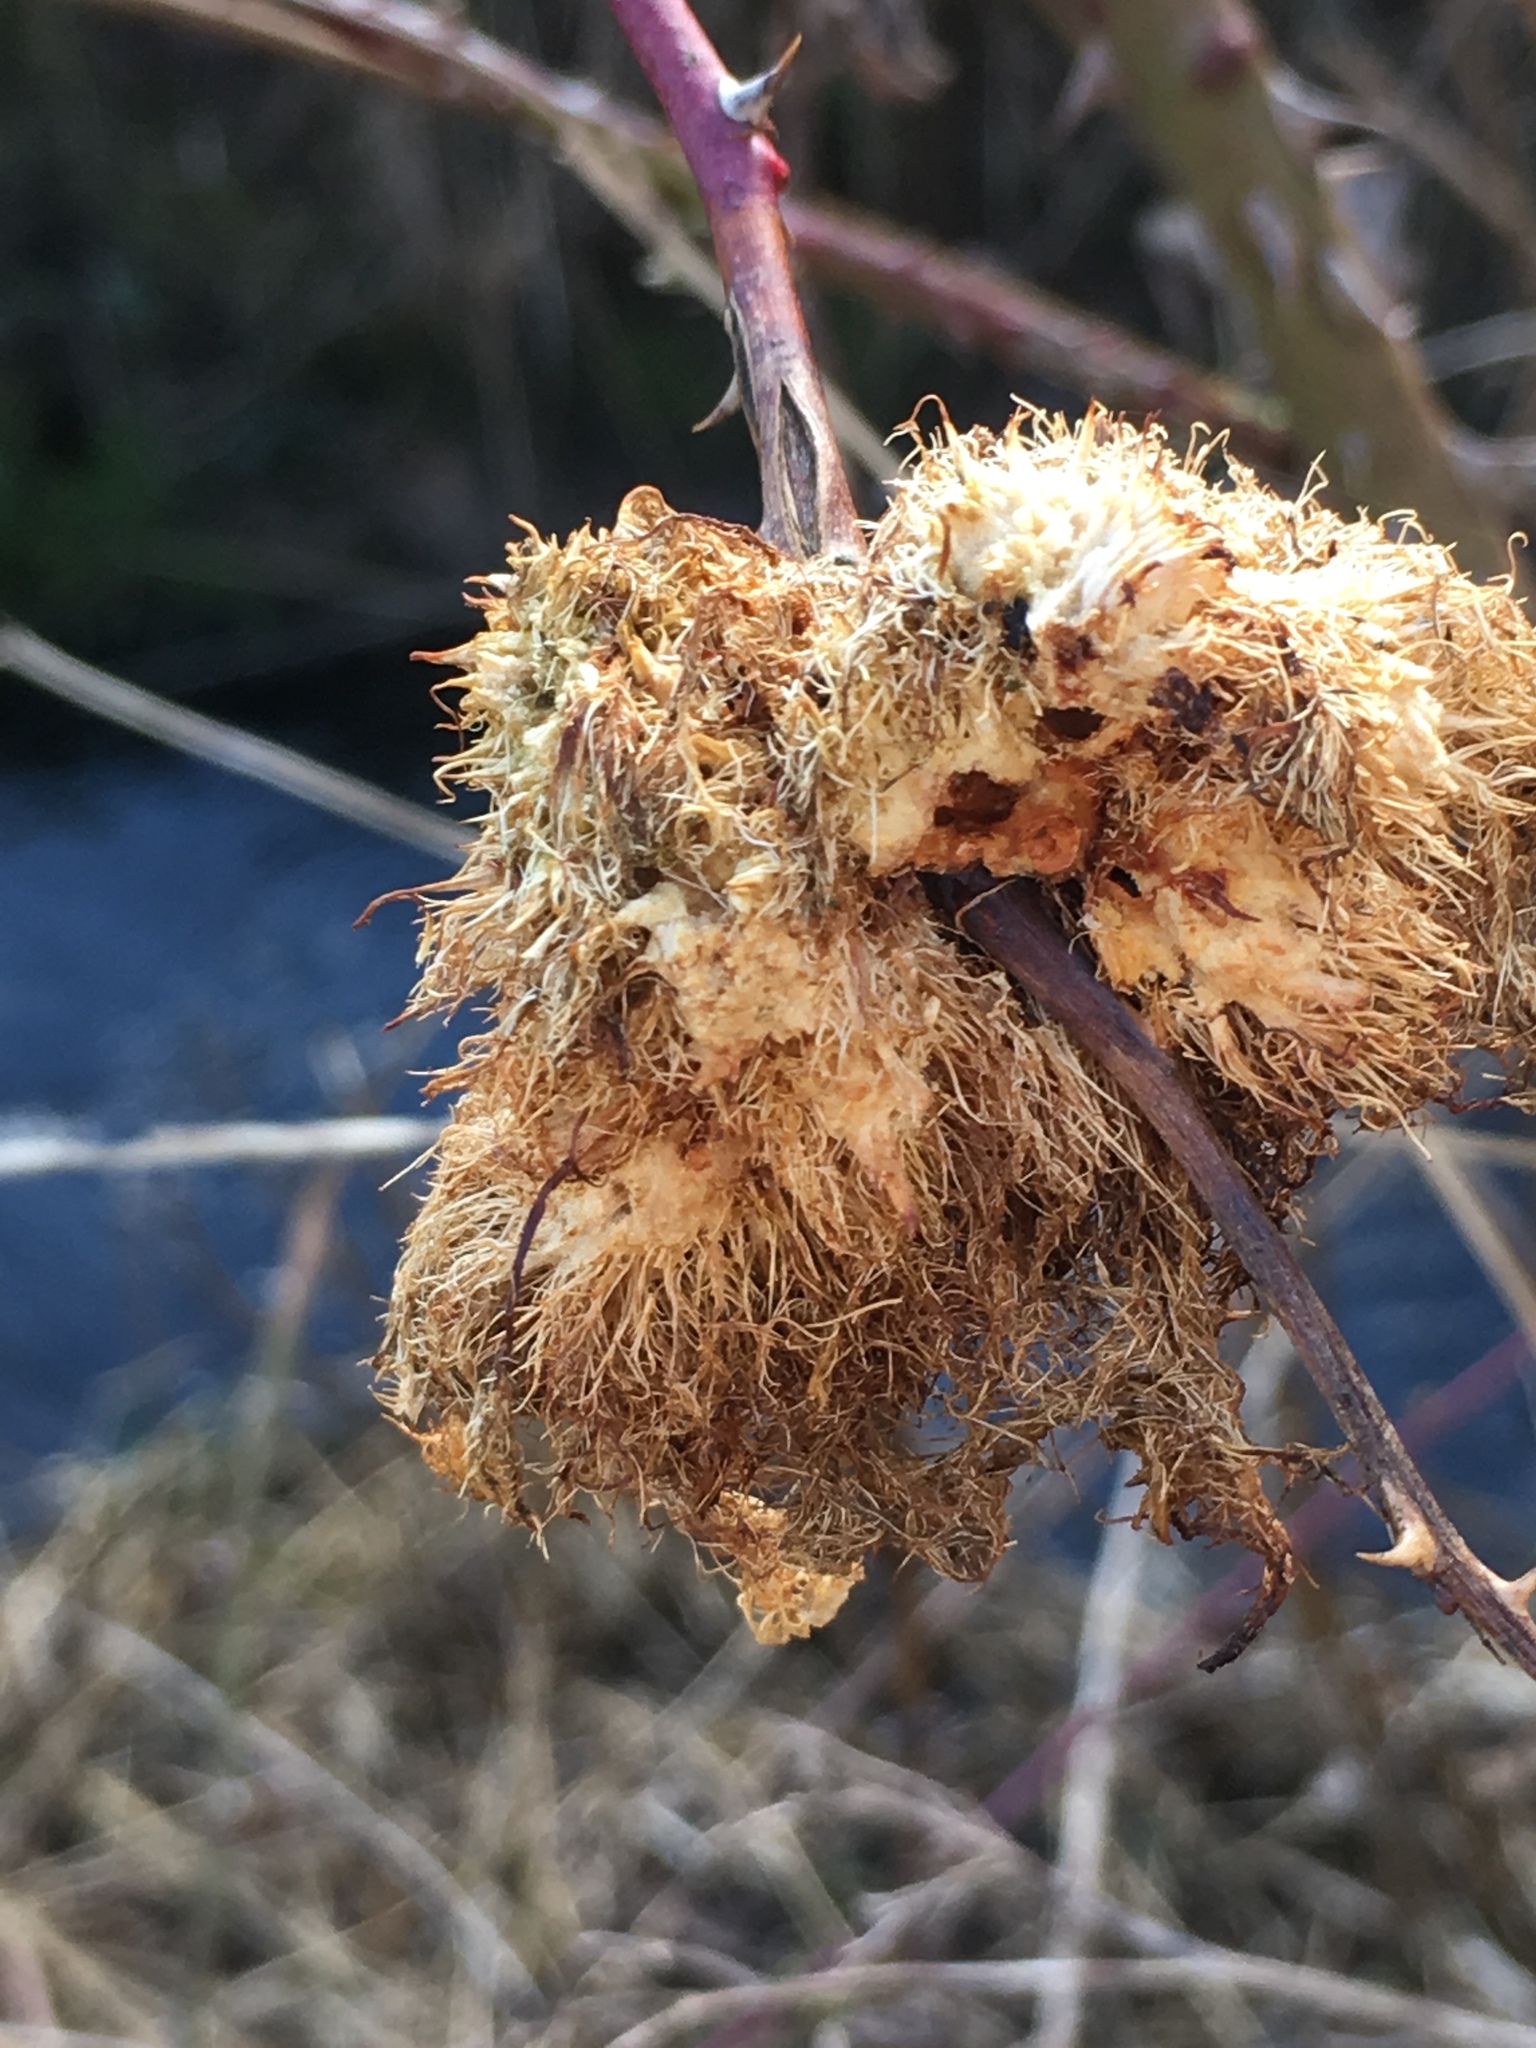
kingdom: Animalia
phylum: Arthropoda
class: Insecta
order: Hymenoptera
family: Cynipidae
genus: Diplolepis
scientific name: Diplolepis rosae
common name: Bedeguar gall
